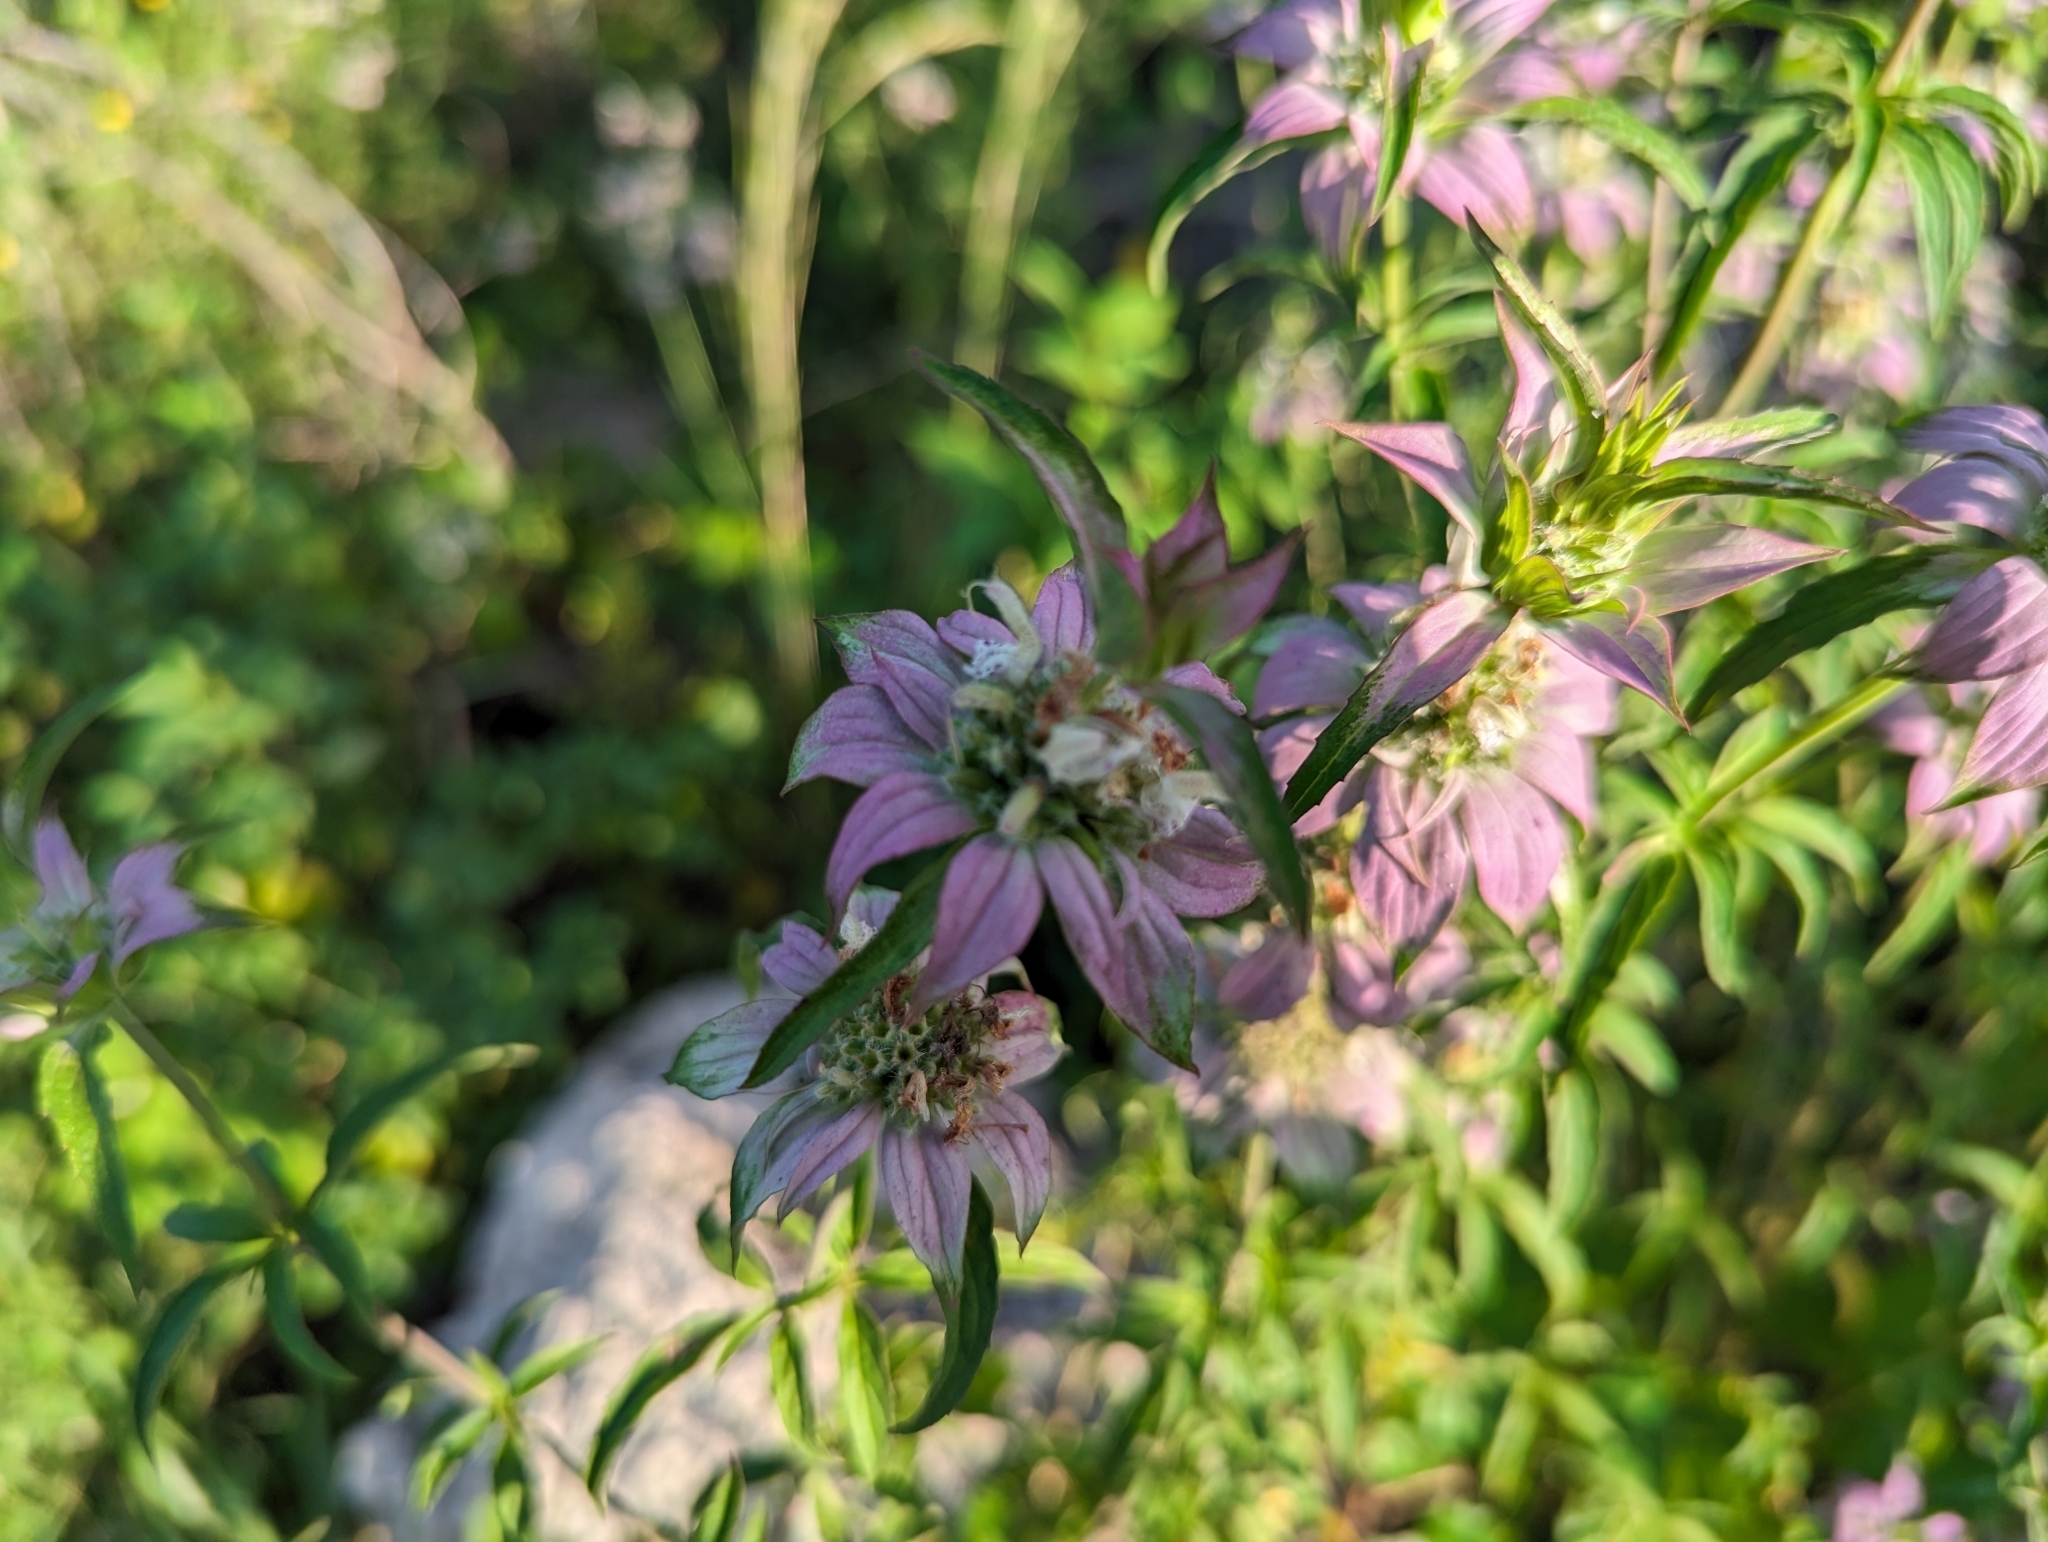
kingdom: Plantae
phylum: Tracheophyta
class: Magnoliopsida
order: Lamiales
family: Lamiaceae
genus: Monarda
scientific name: Monarda punctata
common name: Dotted monarda
